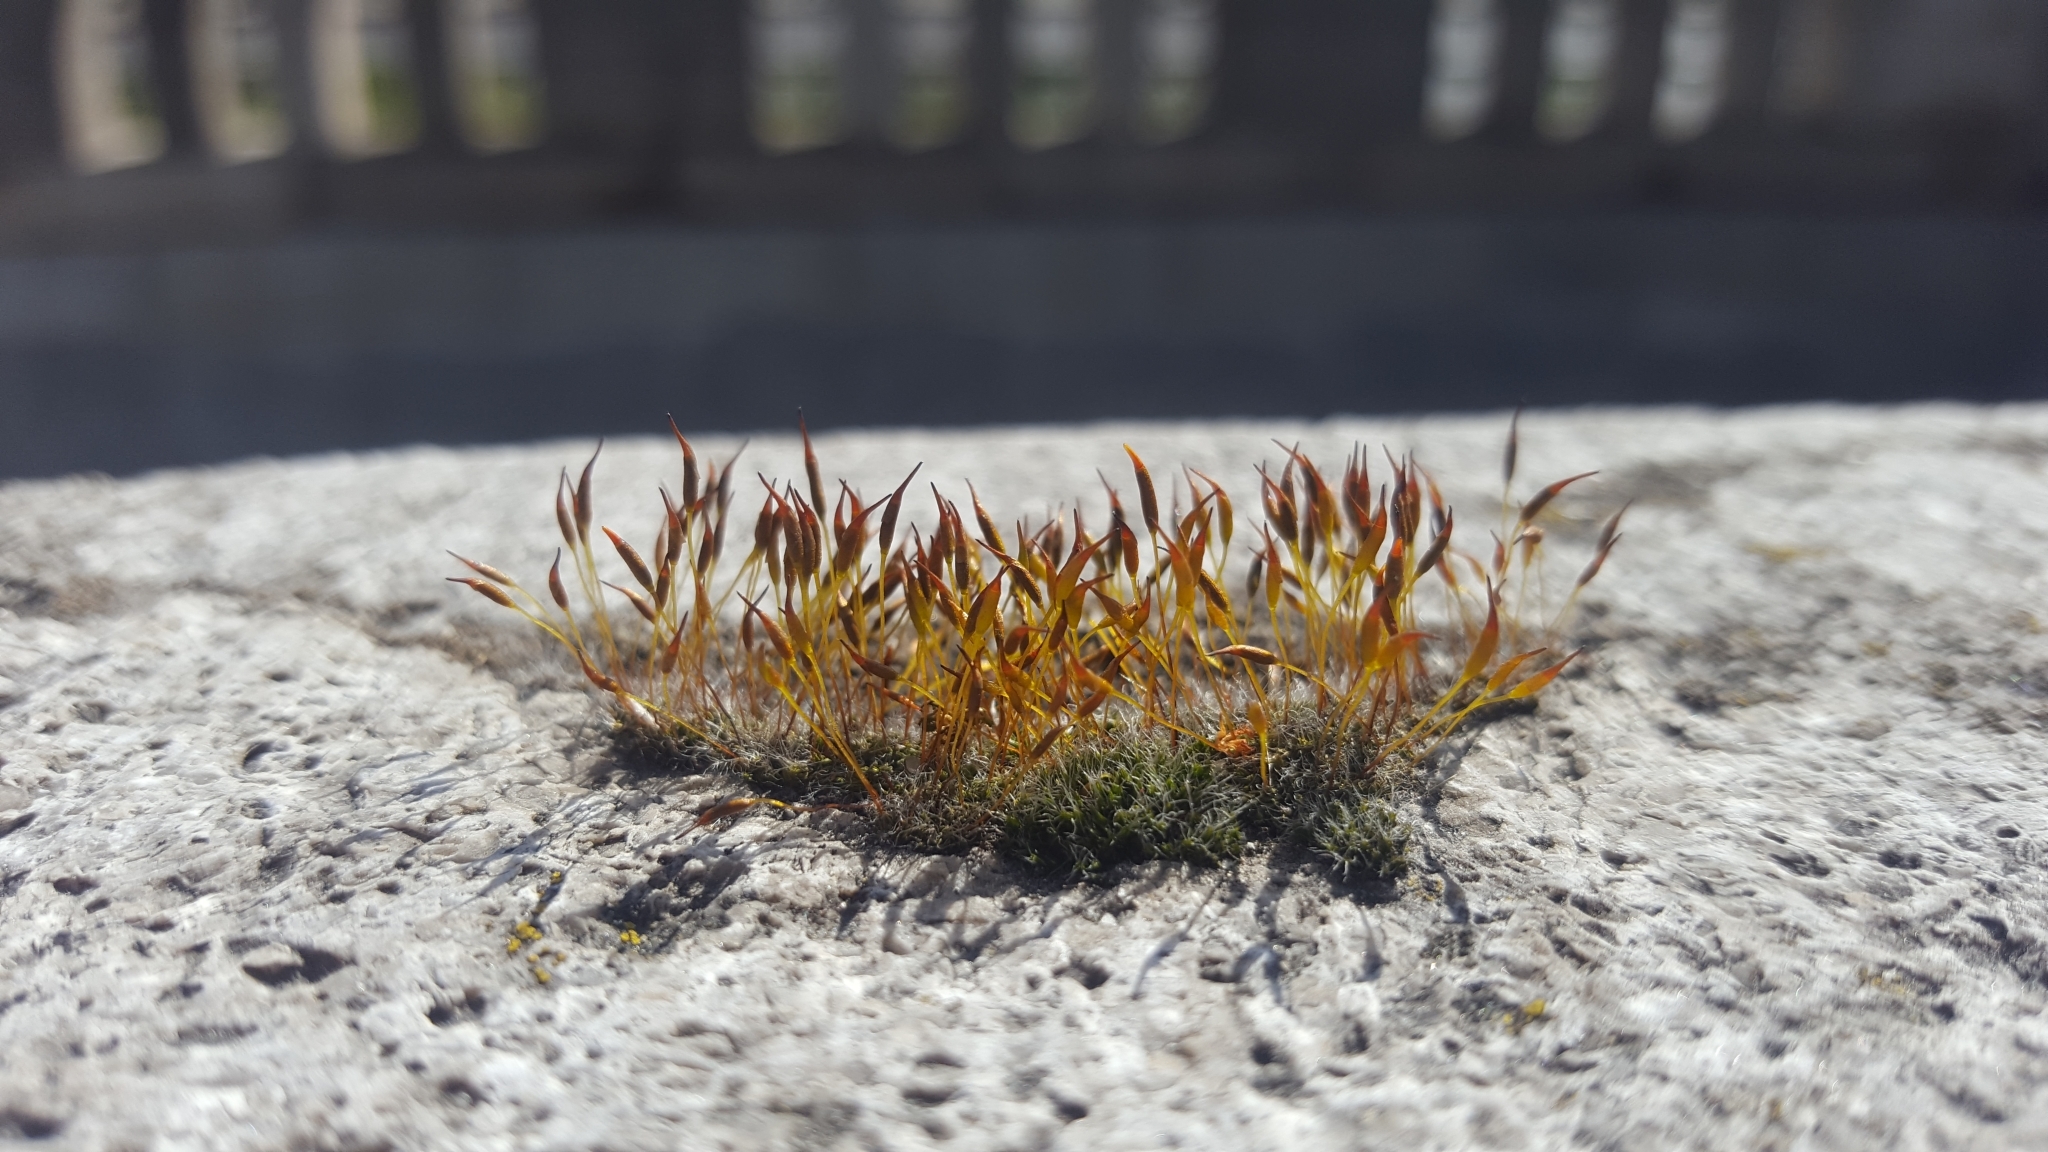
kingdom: Plantae
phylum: Bryophyta
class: Bryopsida
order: Pottiales
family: Pottiaceae
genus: Tortula
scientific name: Tortula muralis
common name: Wall screw-moss
